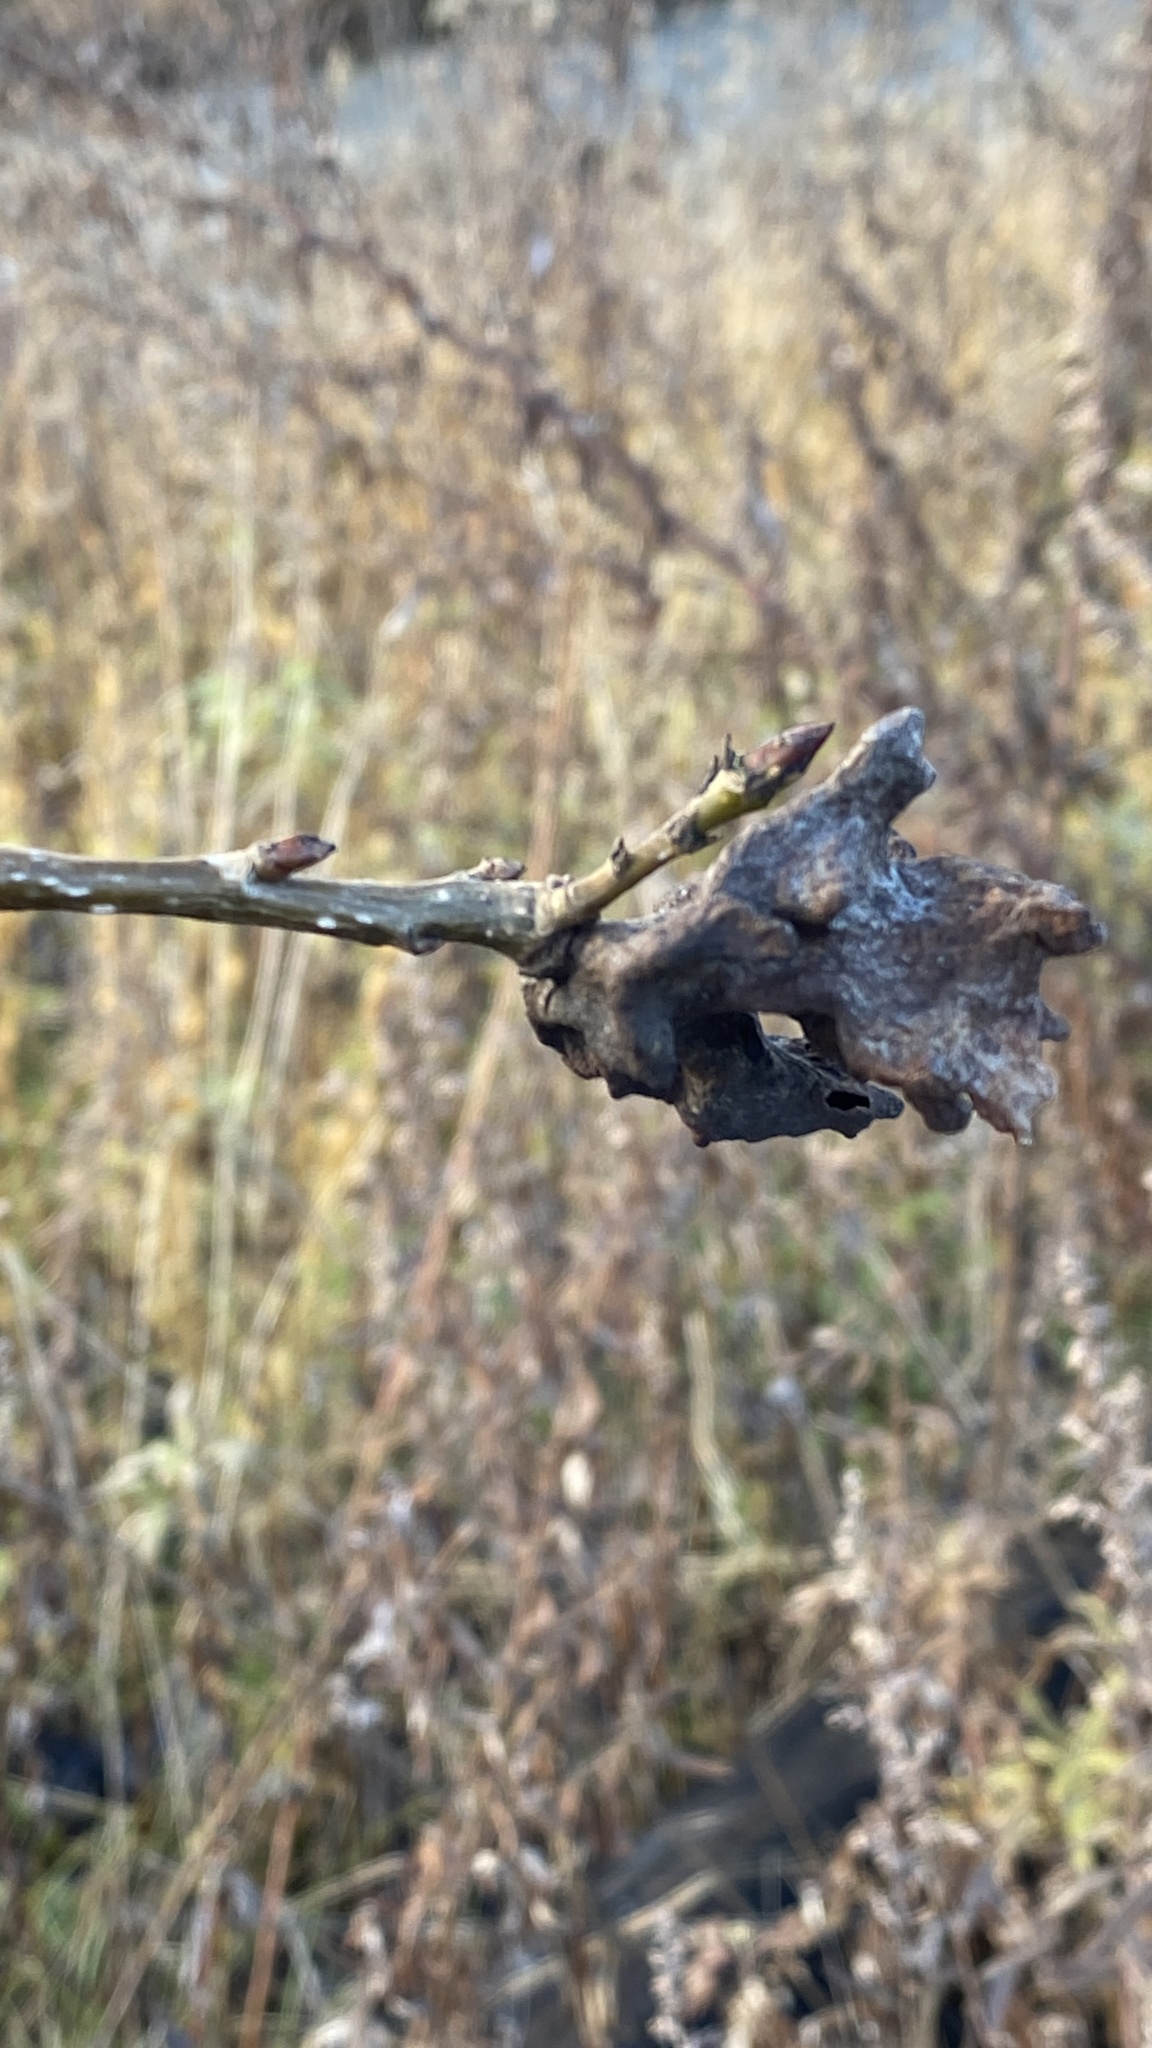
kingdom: Animalia
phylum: Arthropoda
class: Insecta
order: Hemiptera
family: Aphididae
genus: Mordwilkoja
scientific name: Mordwilkoja vagabunda
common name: Poplar vagabond aphid
